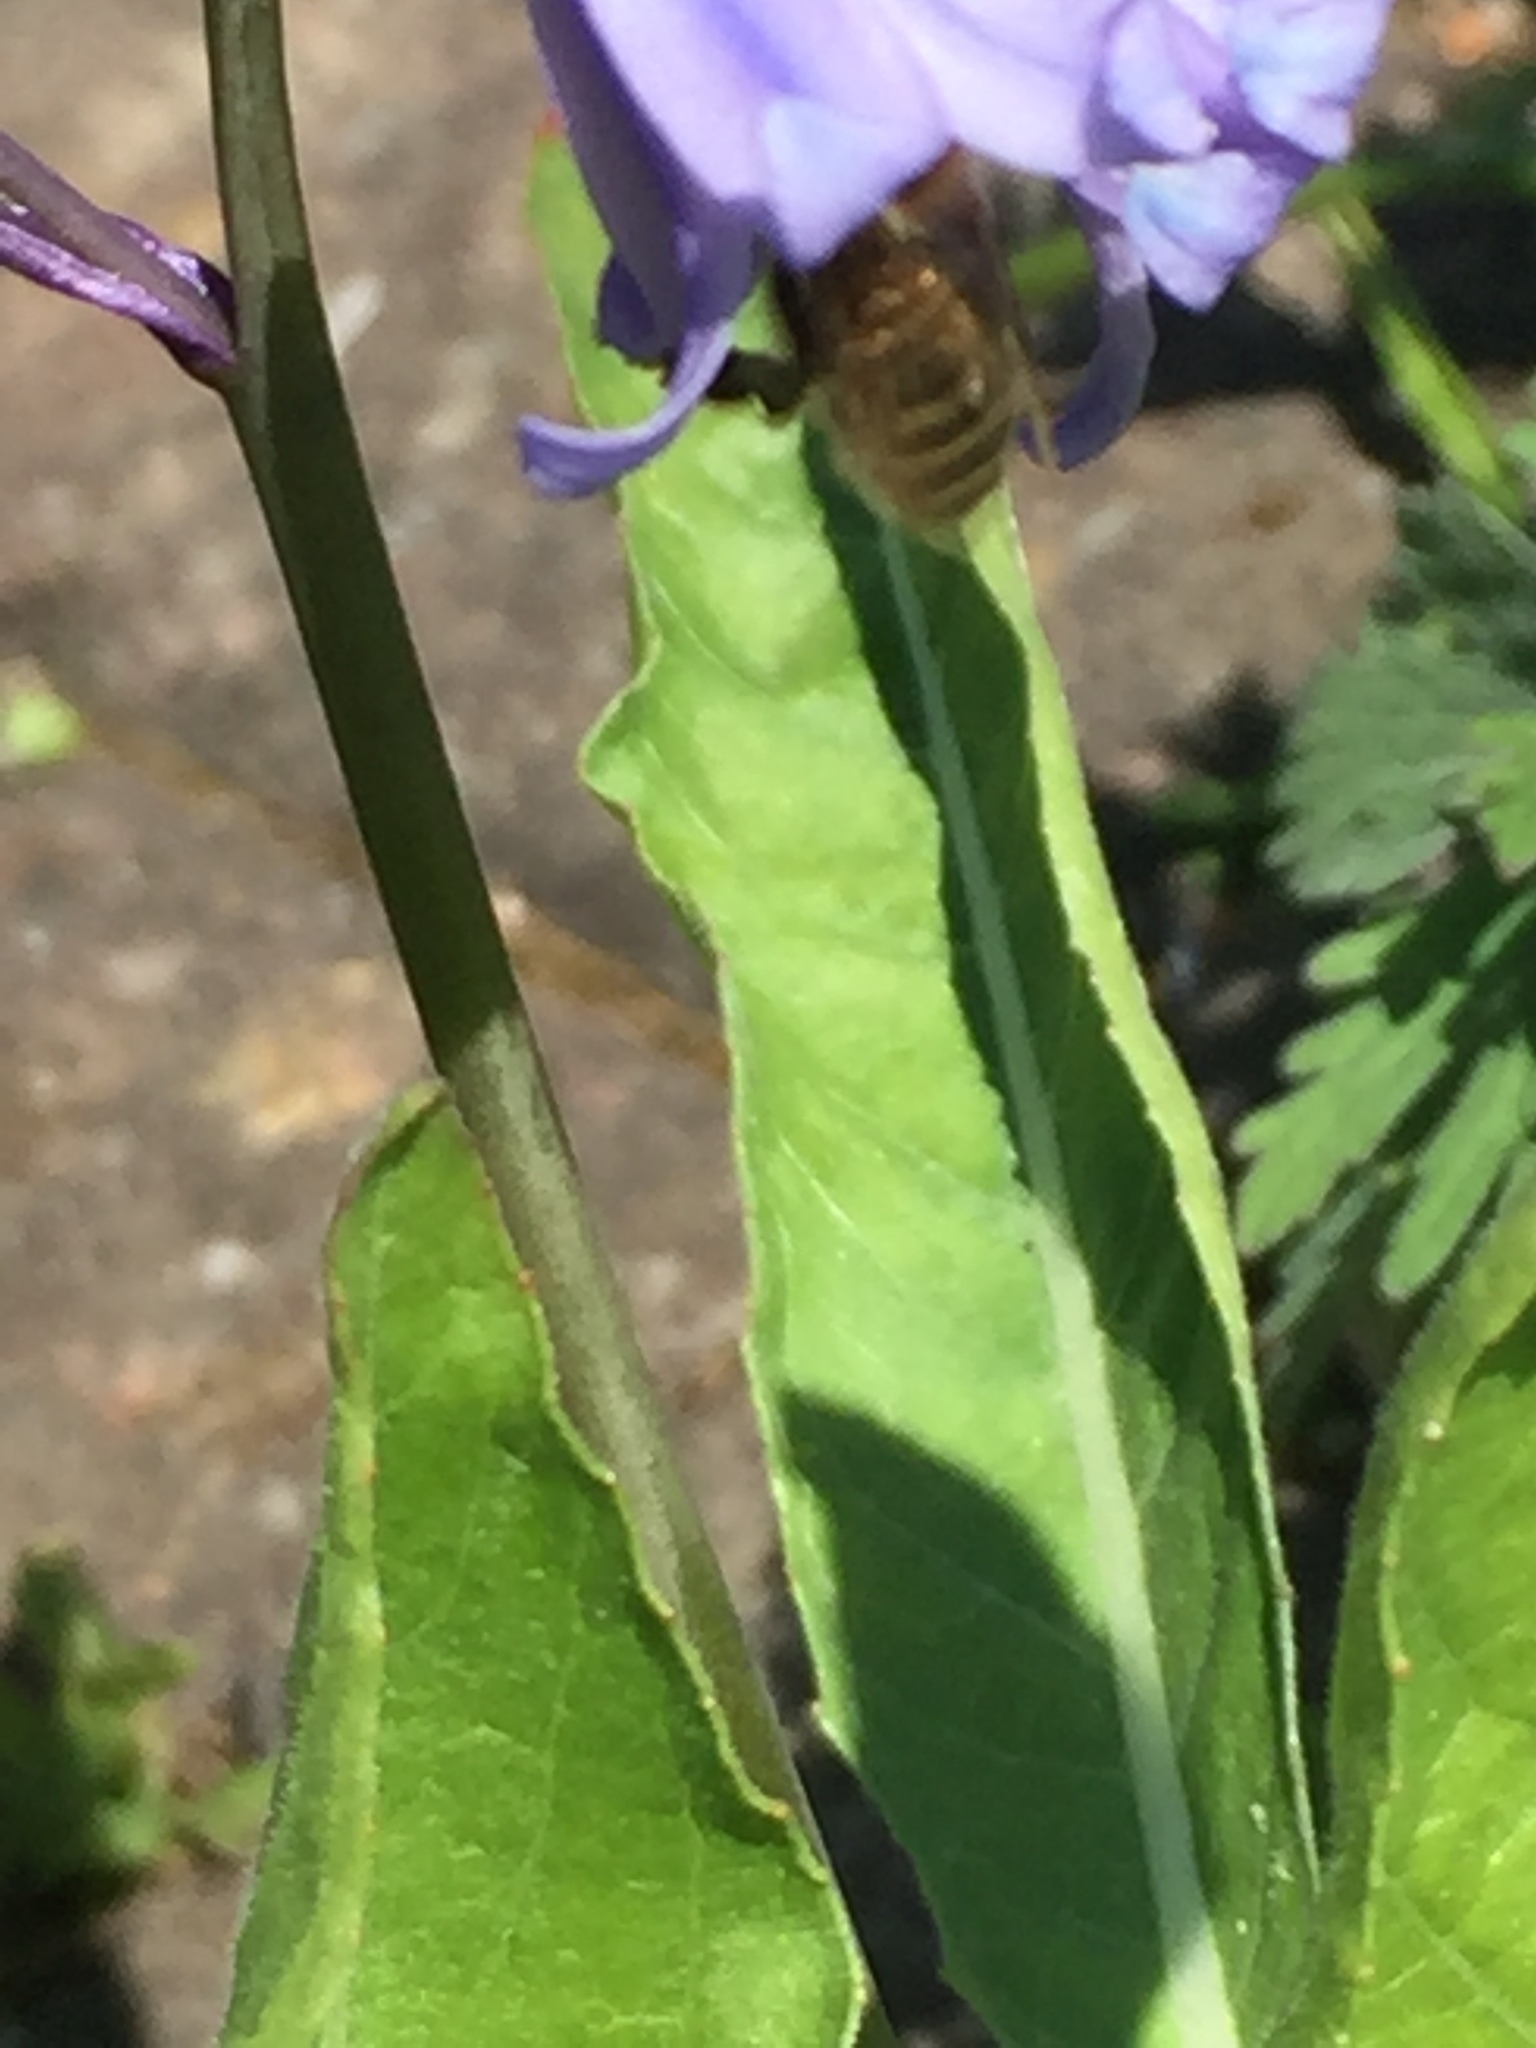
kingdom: Animalia
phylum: Arthropoda
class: Insecta
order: Hymenoptera
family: Apidae
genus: Apis
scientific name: Apis mellifera
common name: Honey bee
